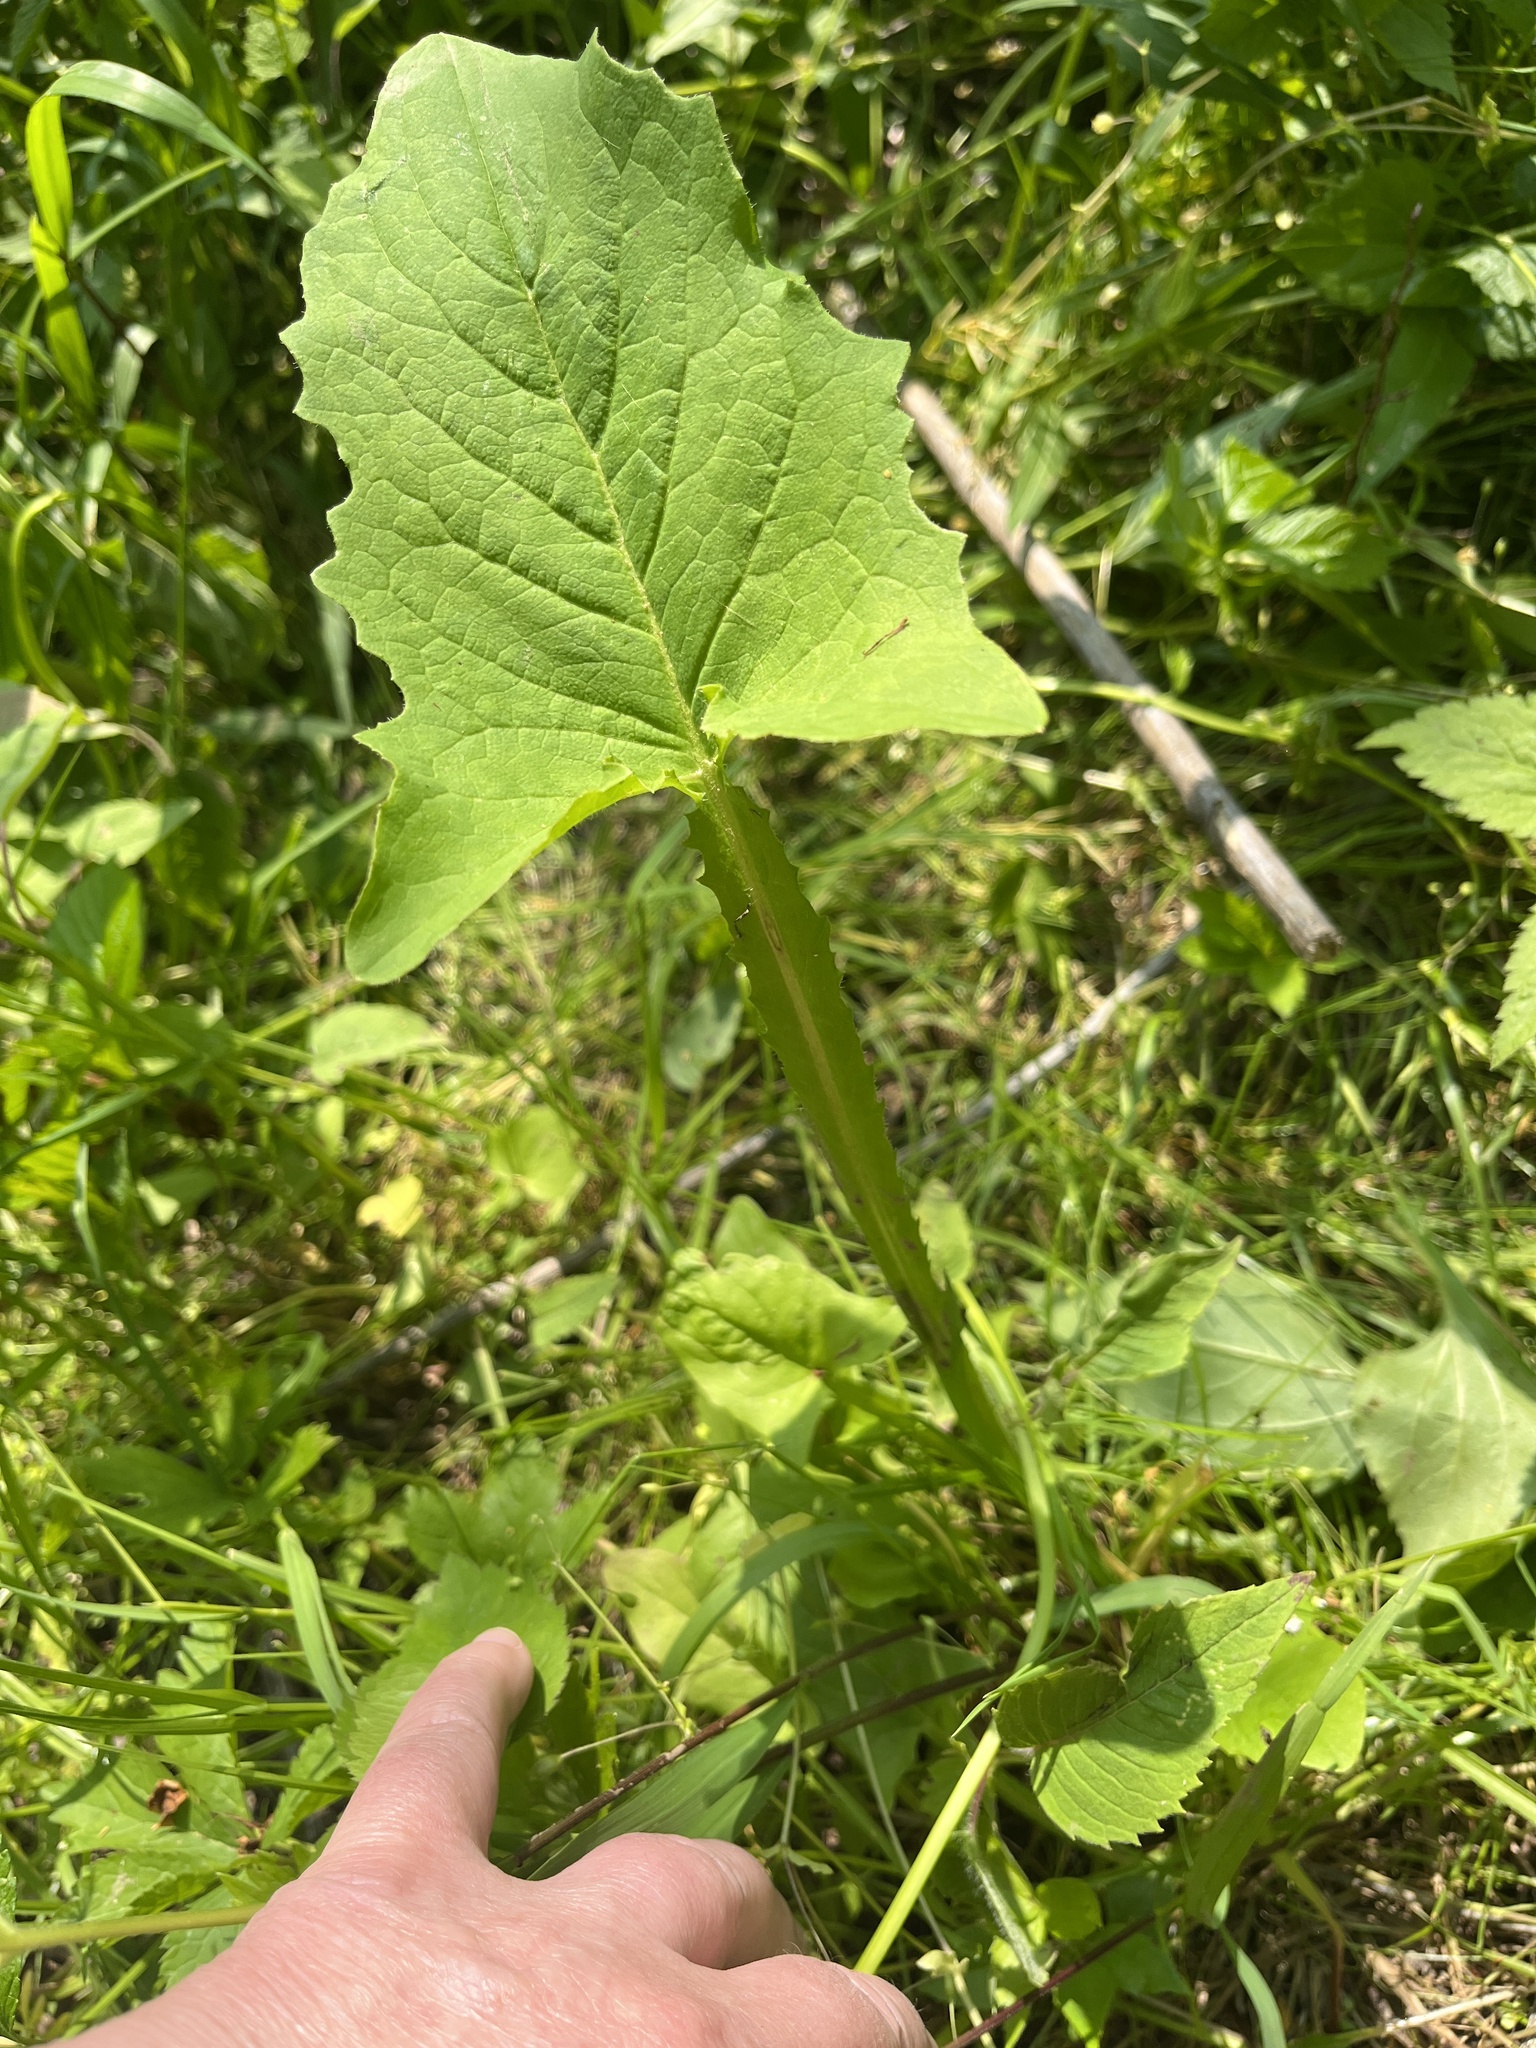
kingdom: Plantae
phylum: Tracheophyta
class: Magnoliopsida
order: Asterales
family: Asteraceae
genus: Nabalus
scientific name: Nabalus crepidineus
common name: Nodding rattlesnakeroot
